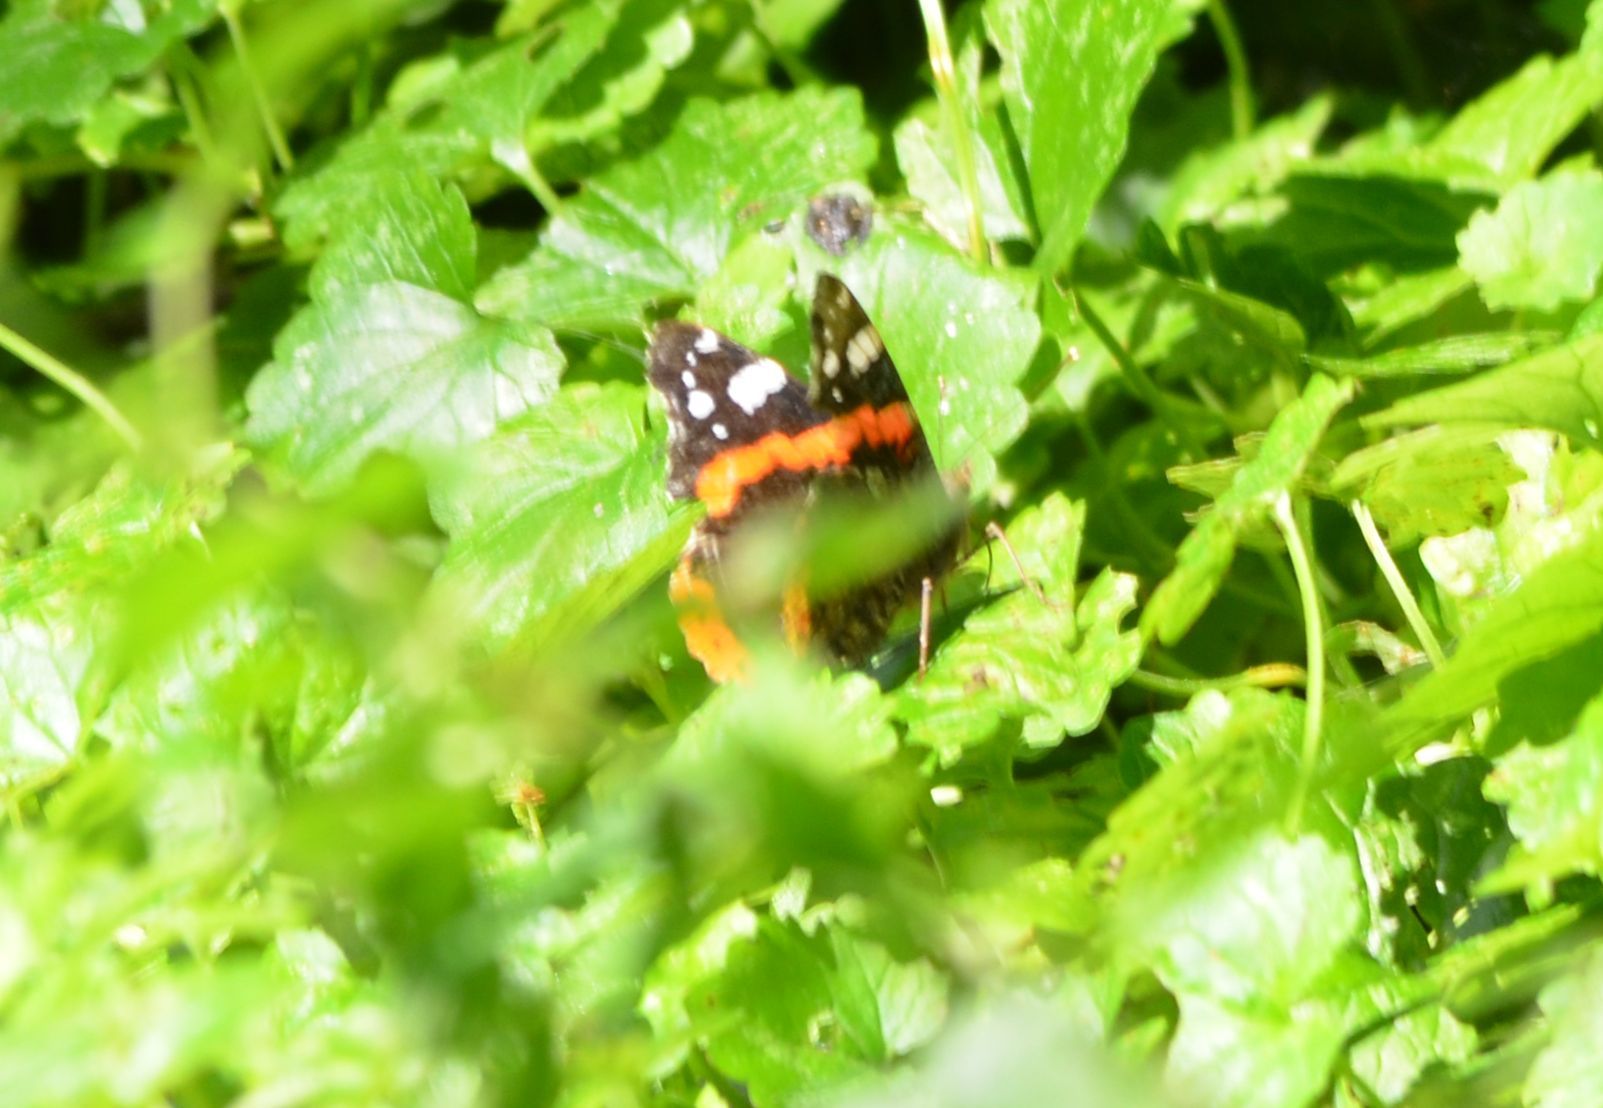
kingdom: Animalia
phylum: Arthropoda
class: Insecta
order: Lepidoptera
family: Nymphalidae
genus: Vanessa
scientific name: Vanessa atalanta
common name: Red admiral
